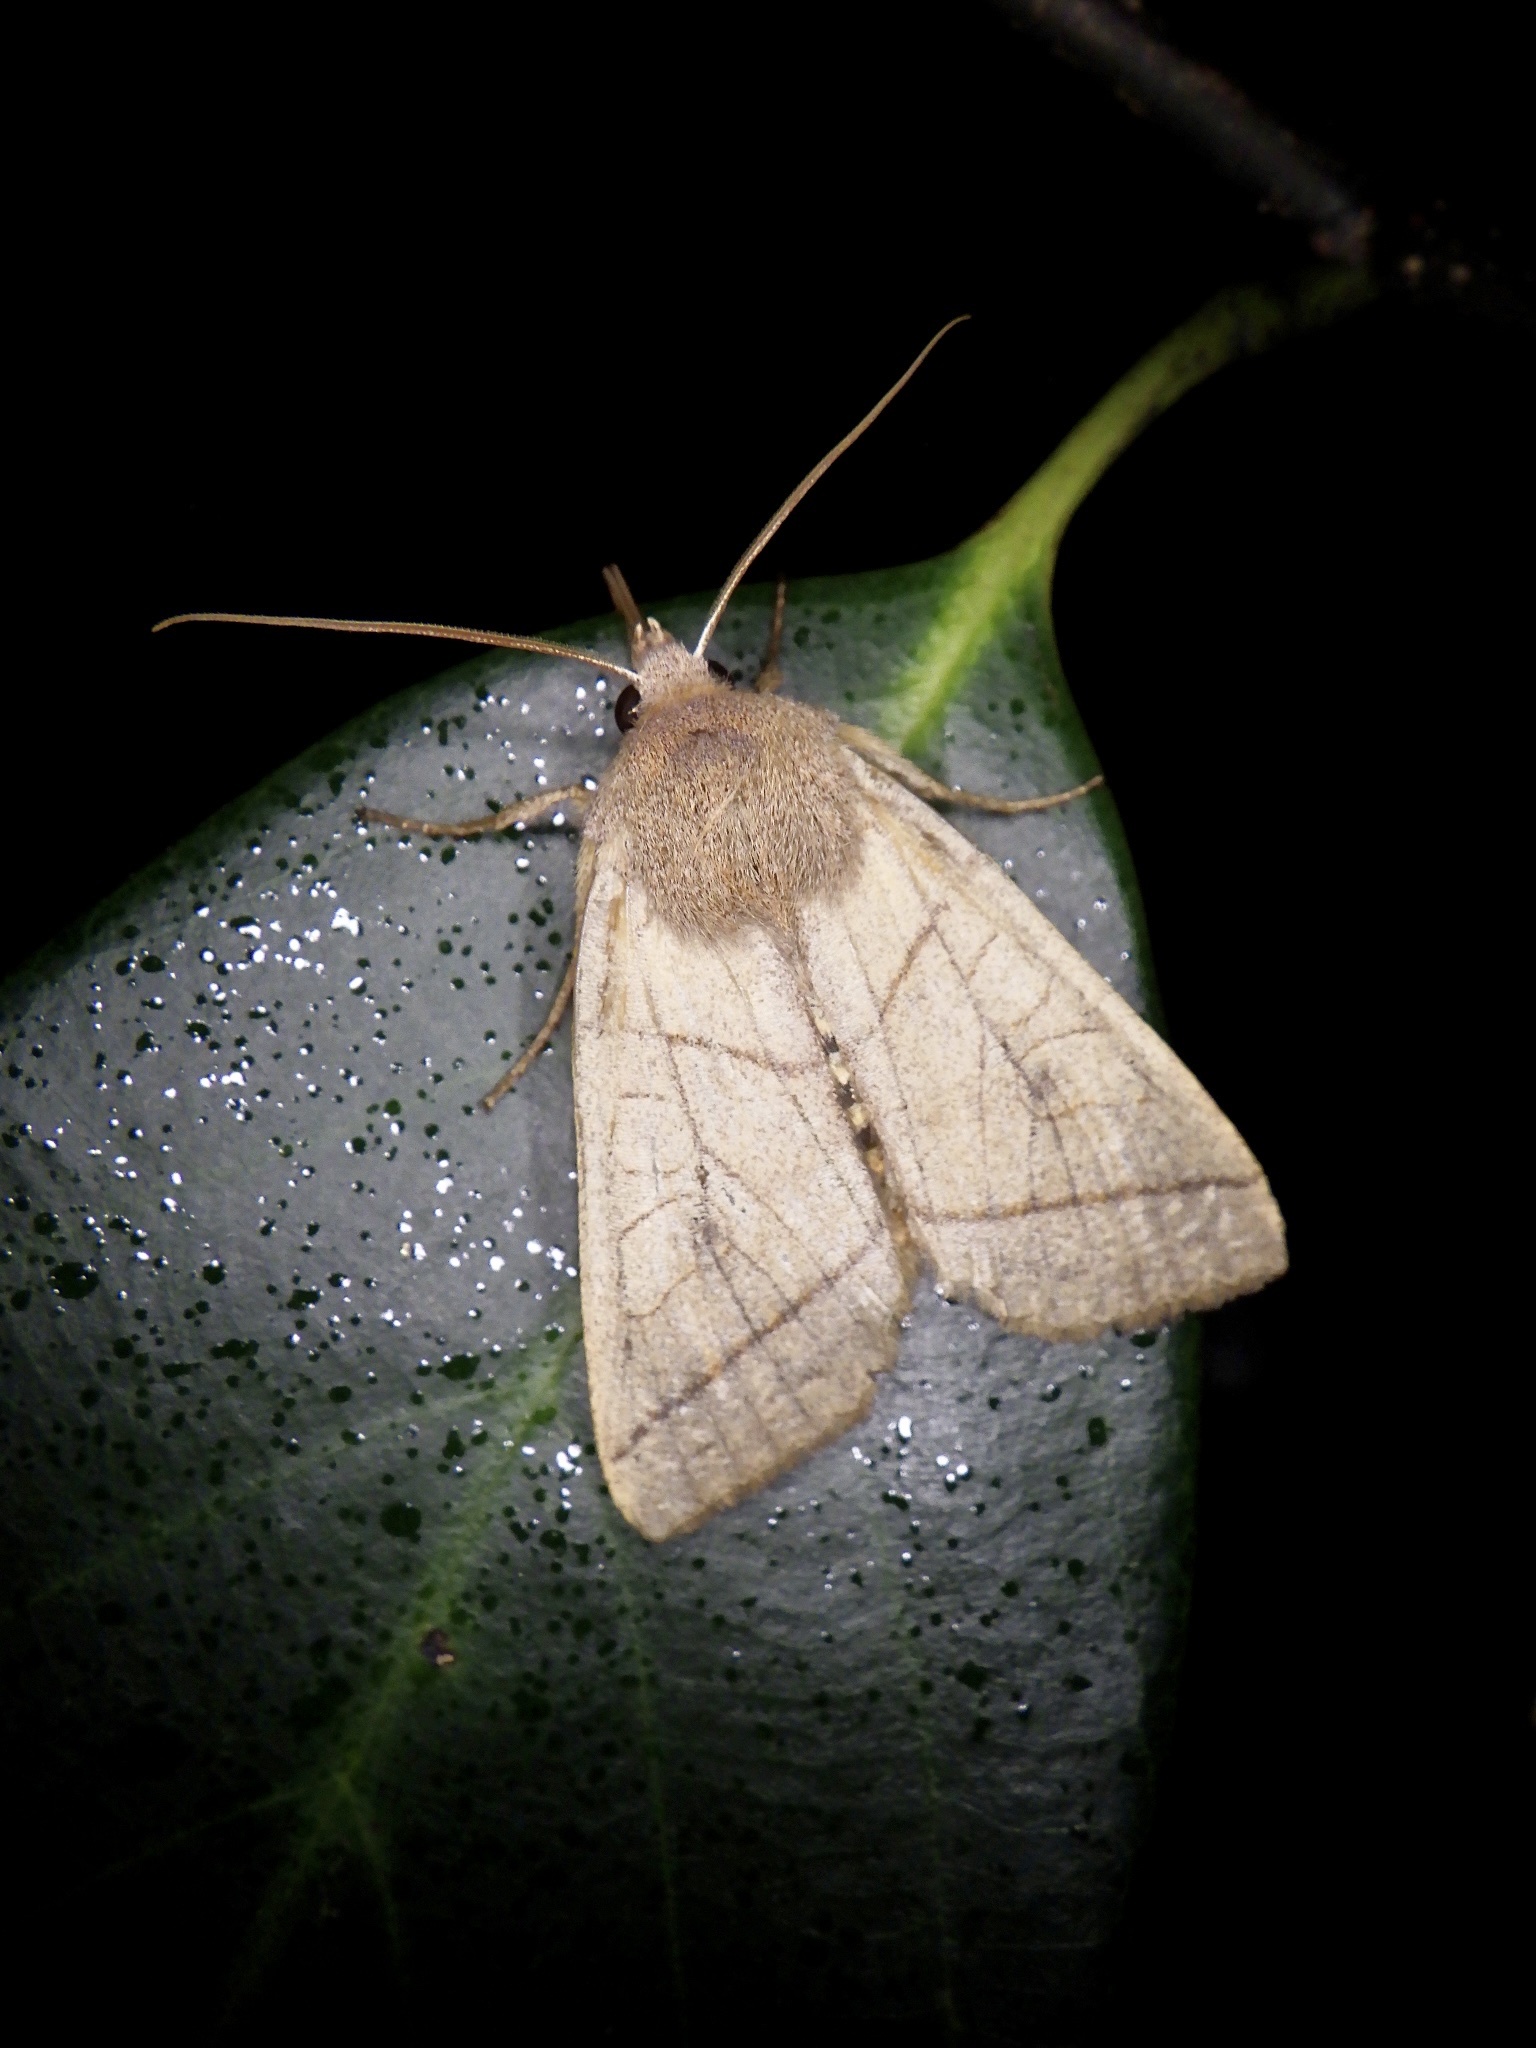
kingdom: Animalia
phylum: Arthropoda
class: Insecta
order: Lepidoptera
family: Noctuidae
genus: Telorta
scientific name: Telorta divergens
